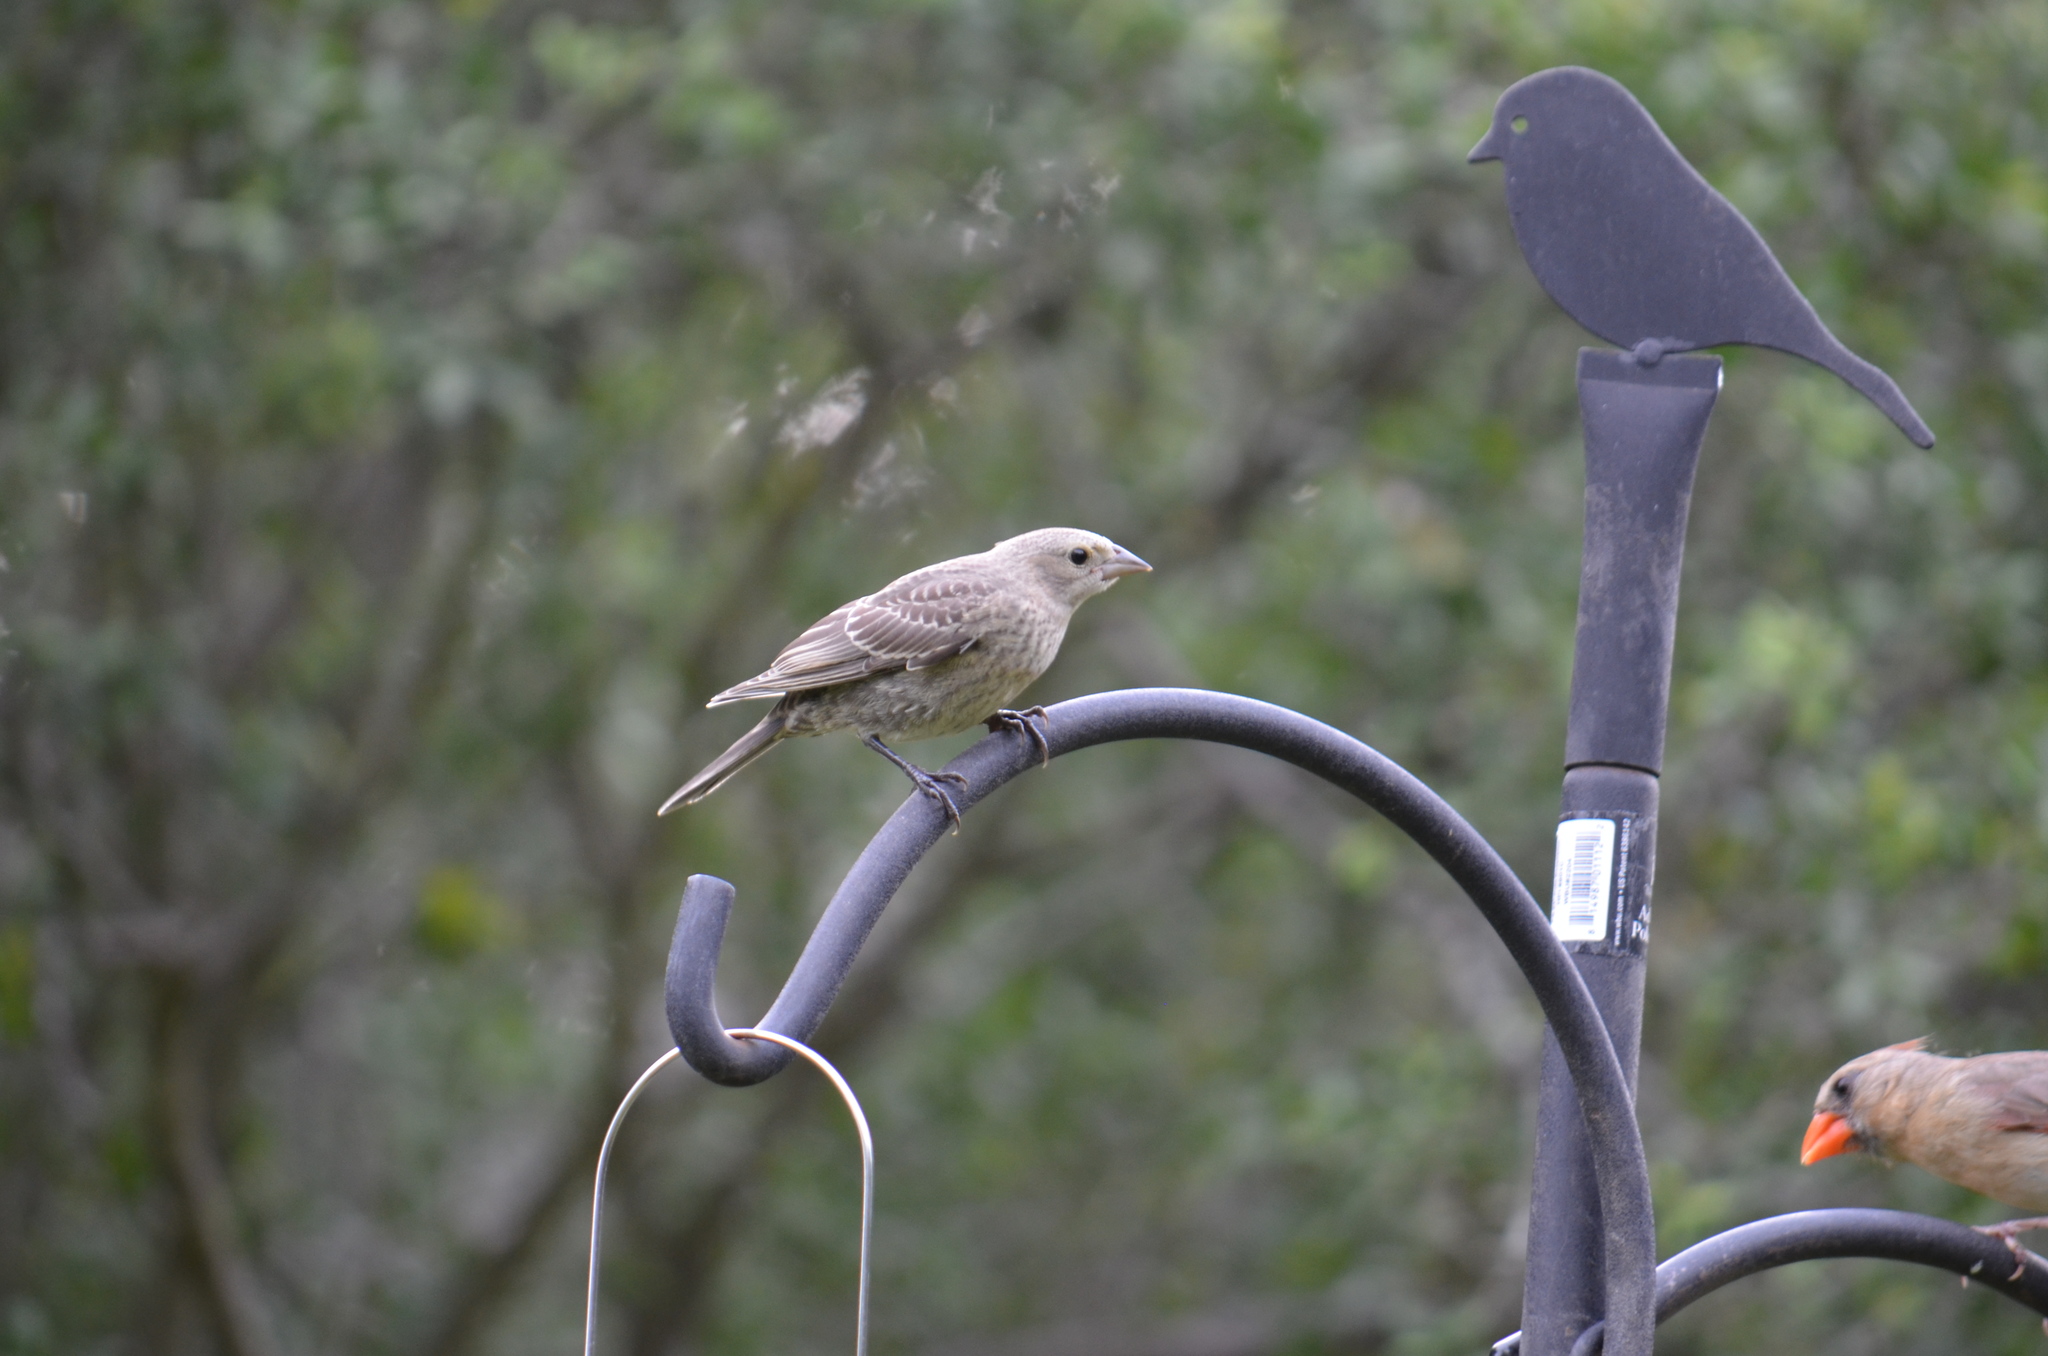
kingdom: Animalia
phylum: Chordata
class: Aves
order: Passeriformes
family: Icteridae
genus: Molothrus
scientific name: Molothrus ater
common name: Brown-headed cowbird
